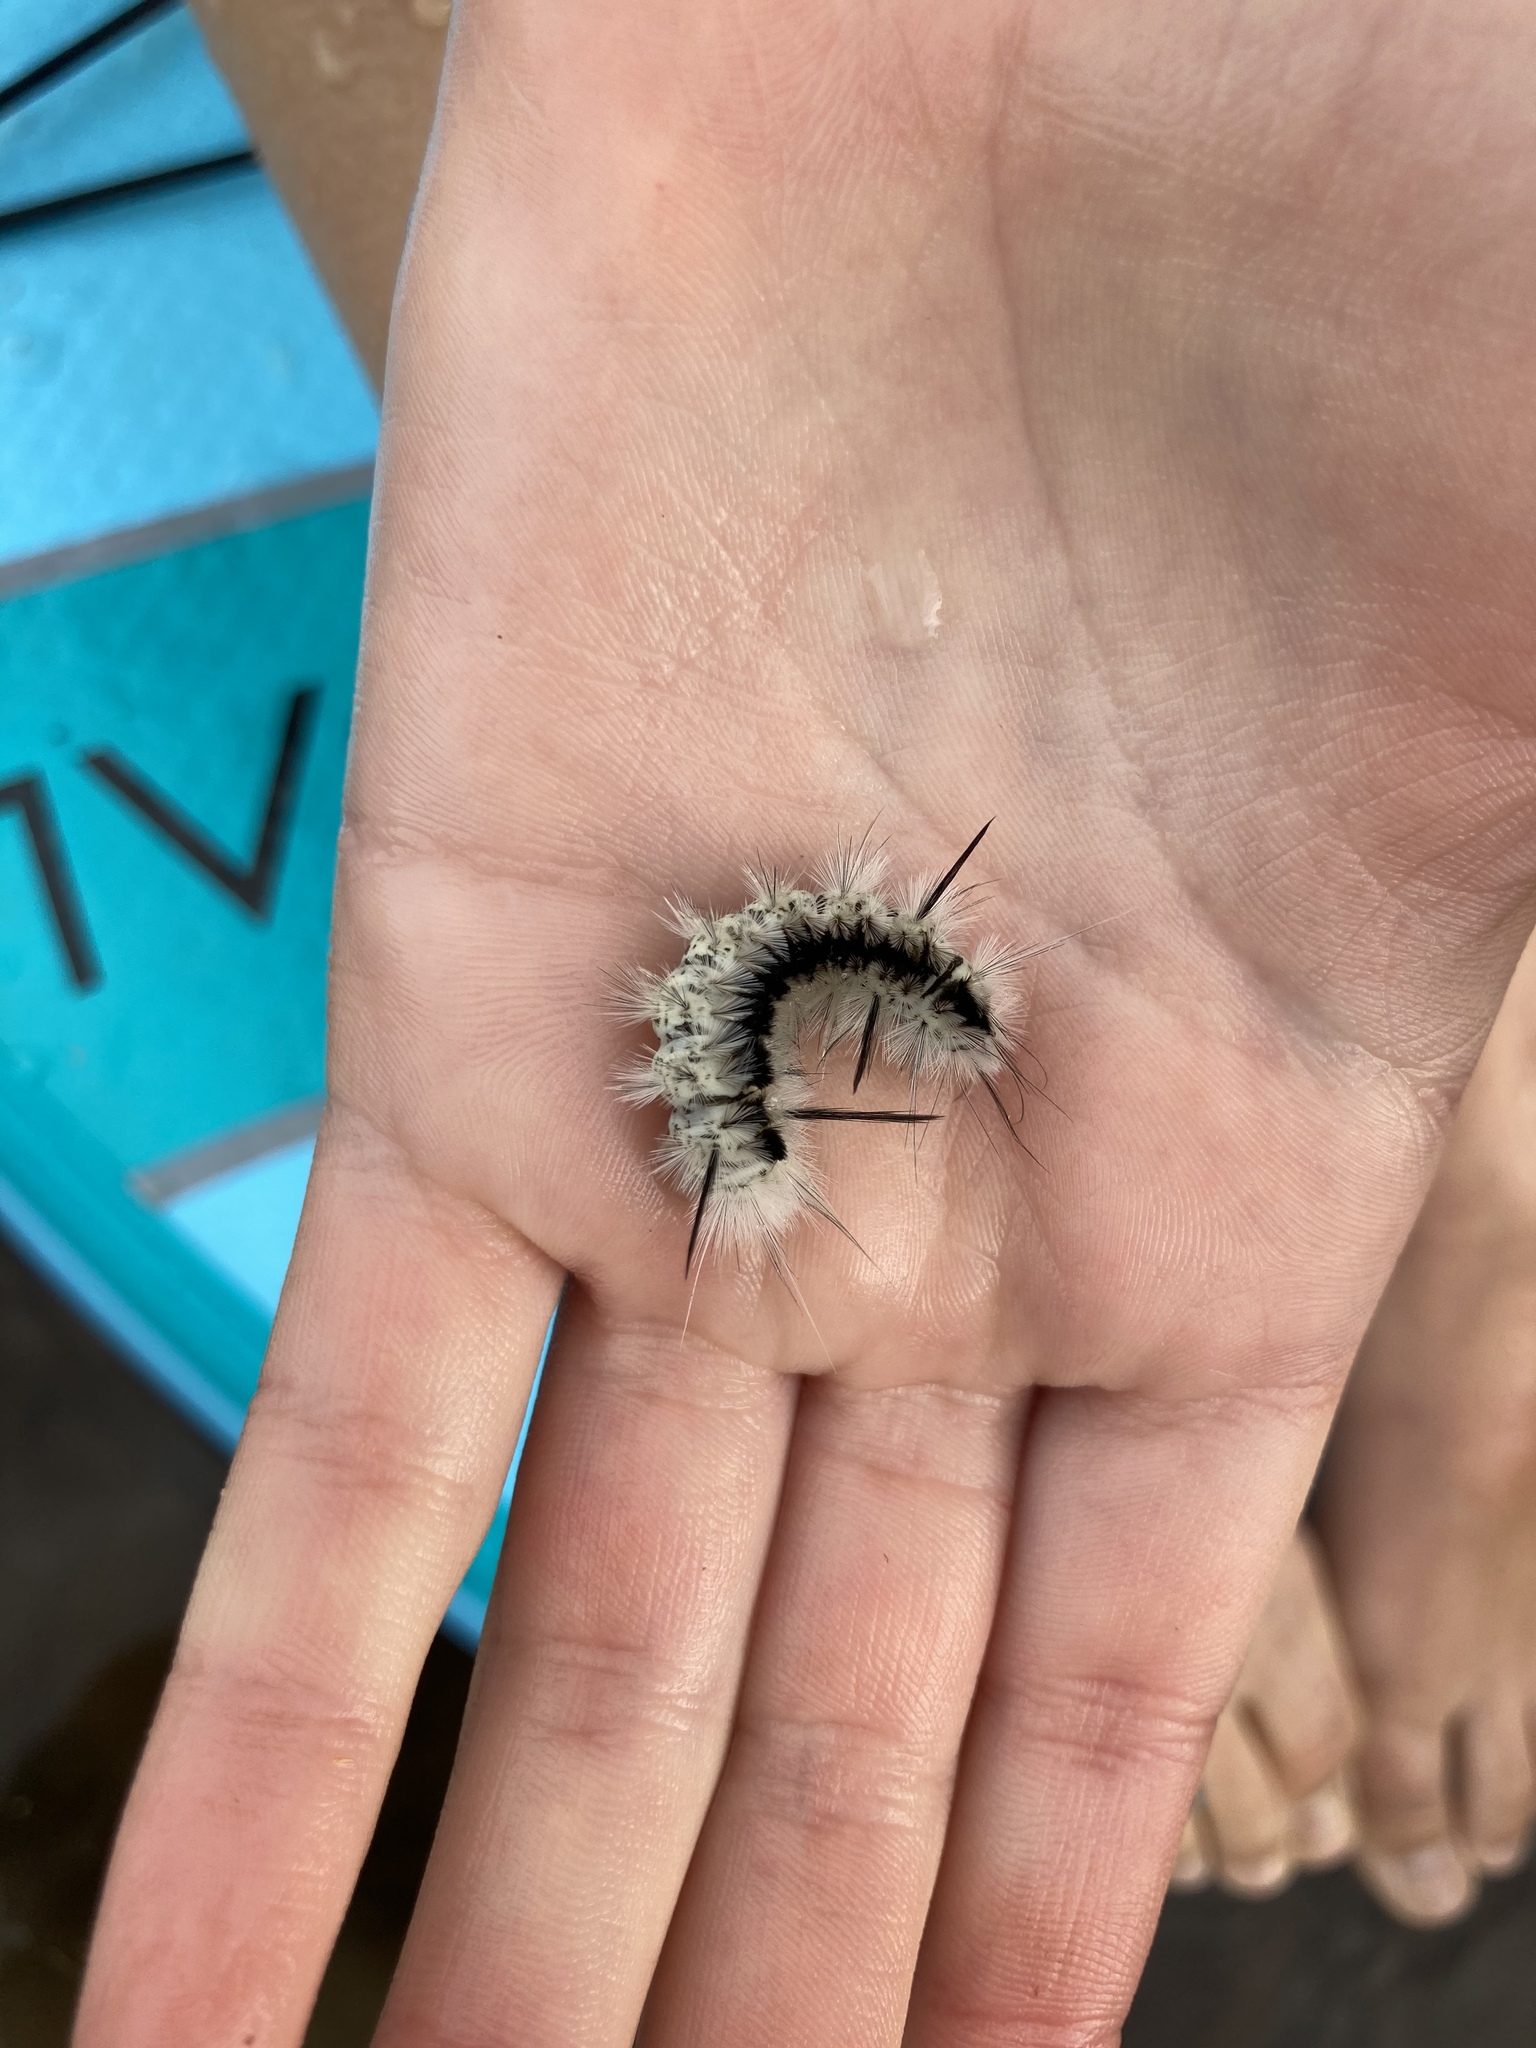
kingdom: Animalia
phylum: Arthropoda
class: Insecta
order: Lepidoptera
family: Erebidae
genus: Lophocampa
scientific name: Lophocampa caryae
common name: Hickory tussock moth
